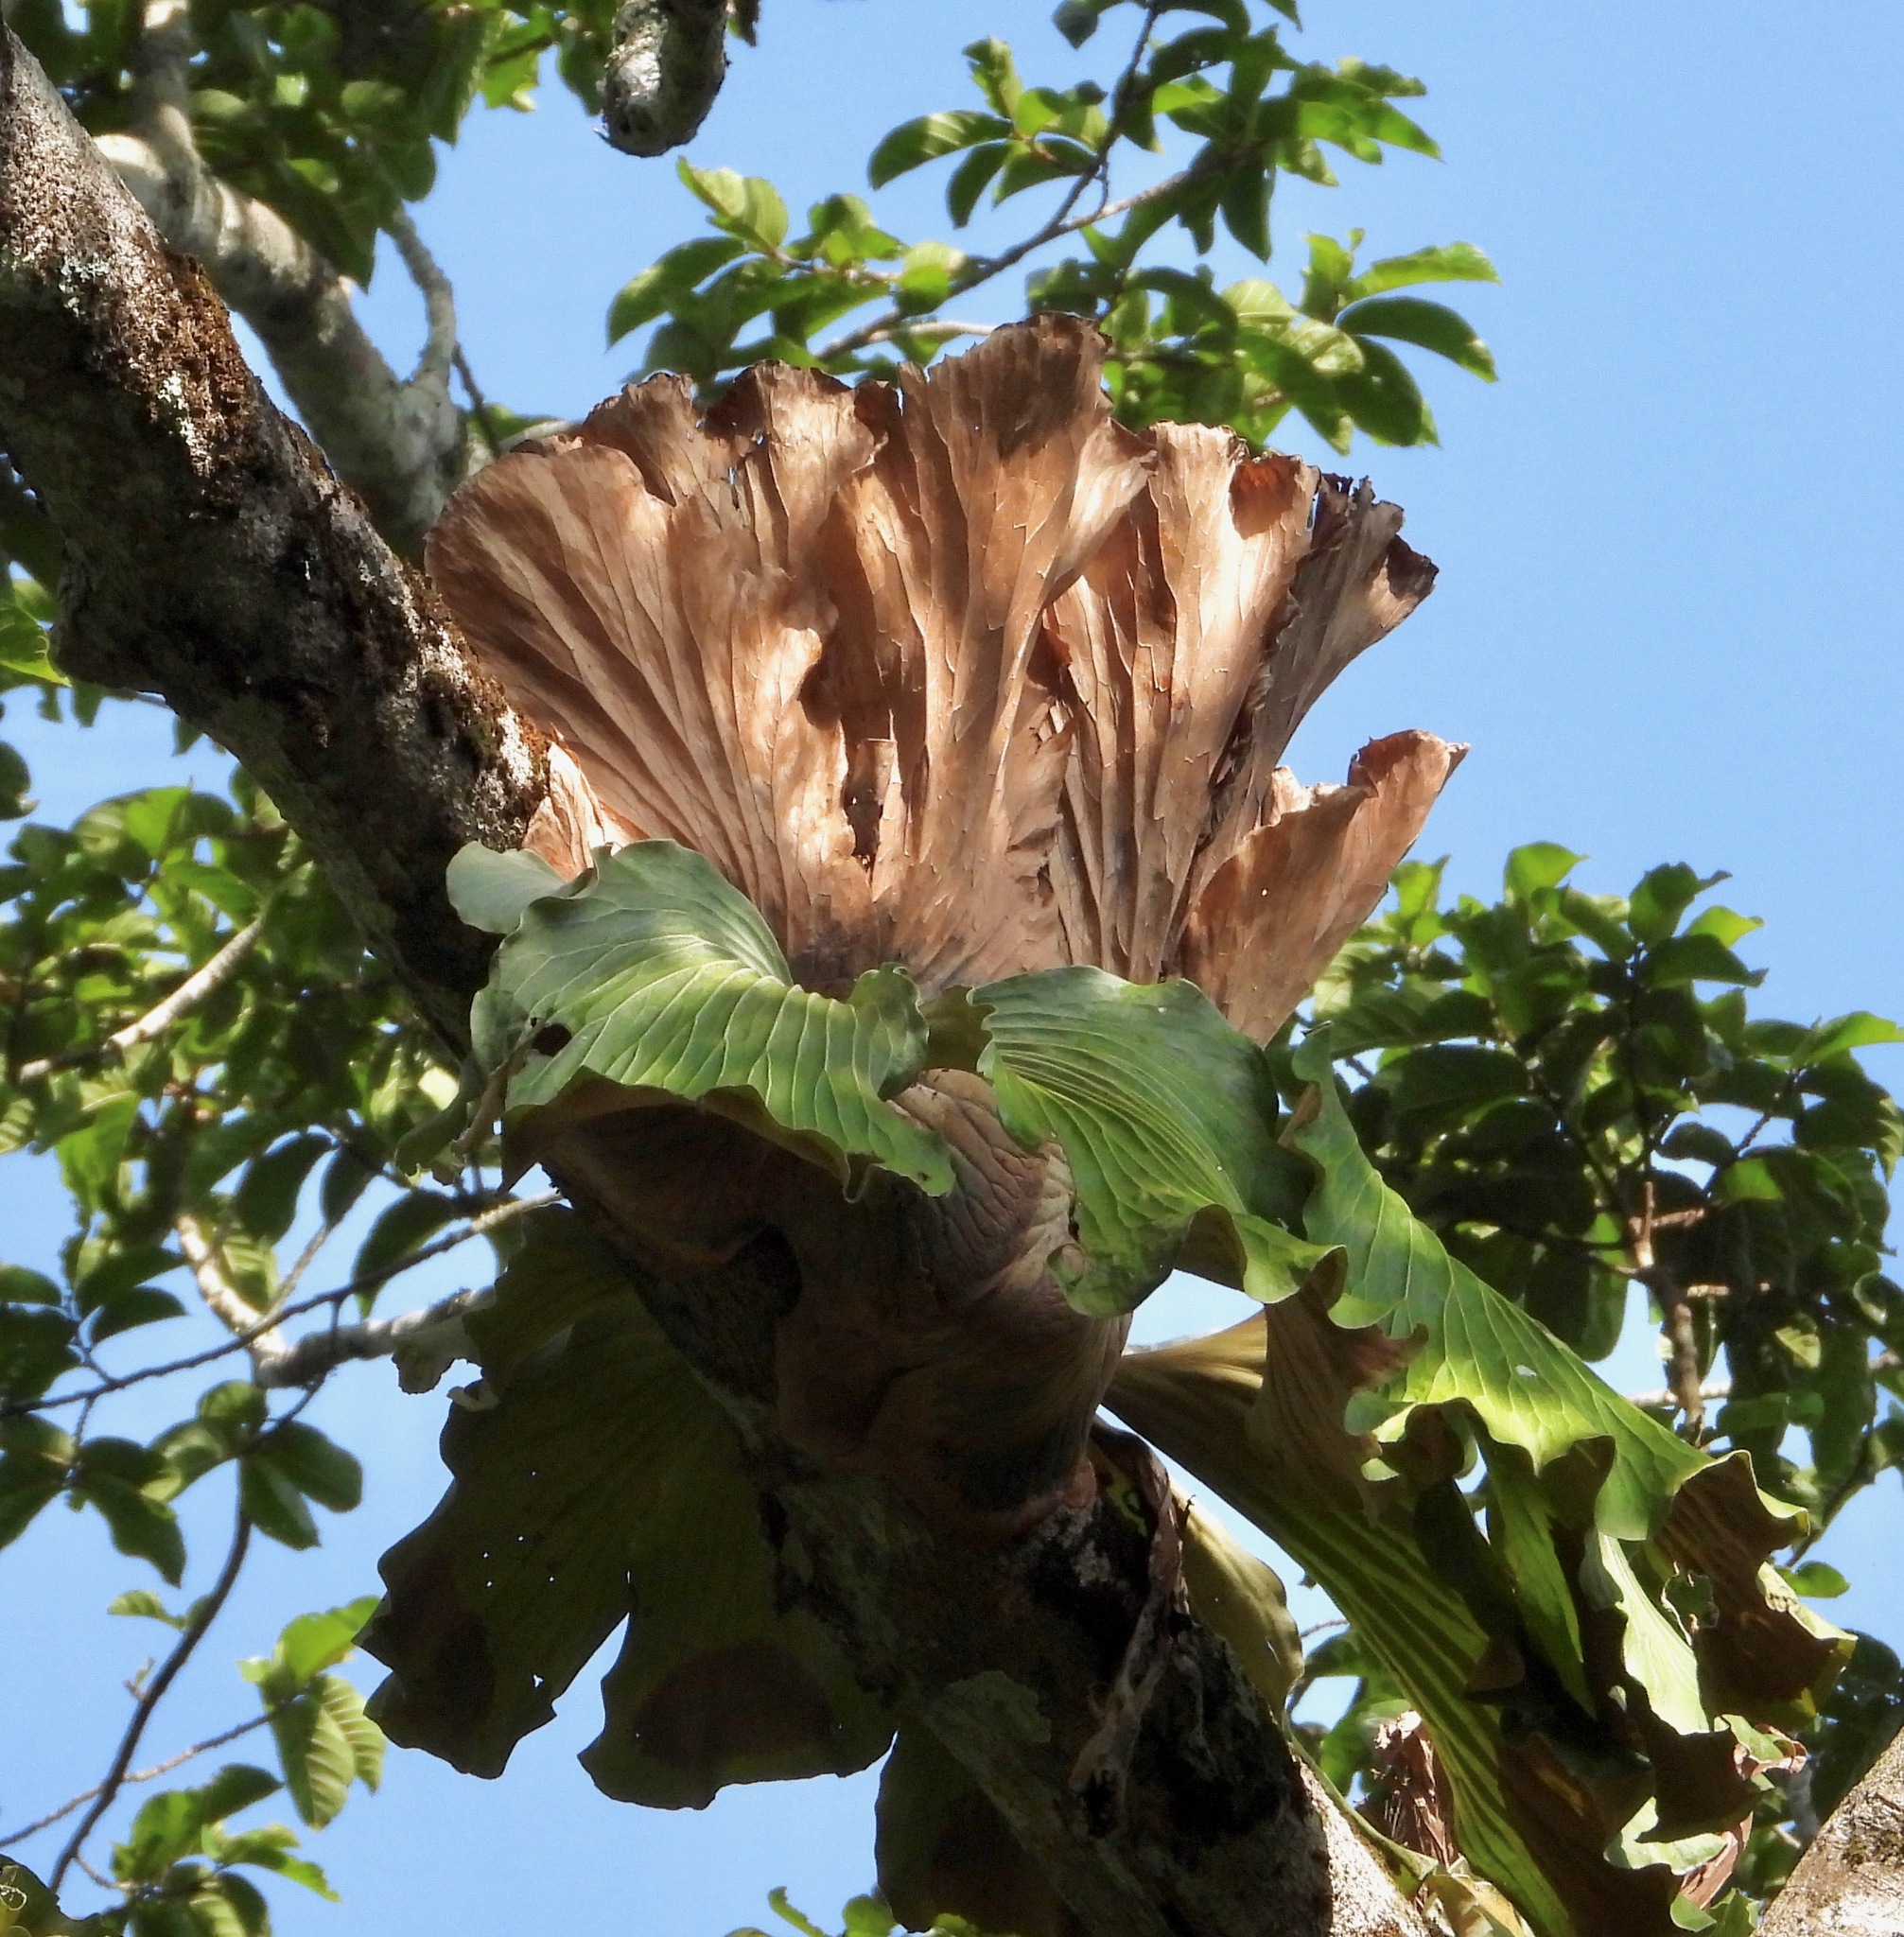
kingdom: Plantae
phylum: Tracheophyta
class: Polypodiopsida
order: Polypodiales
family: Polypodiaceae
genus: Platycerium
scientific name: Platycerium elephantotis
